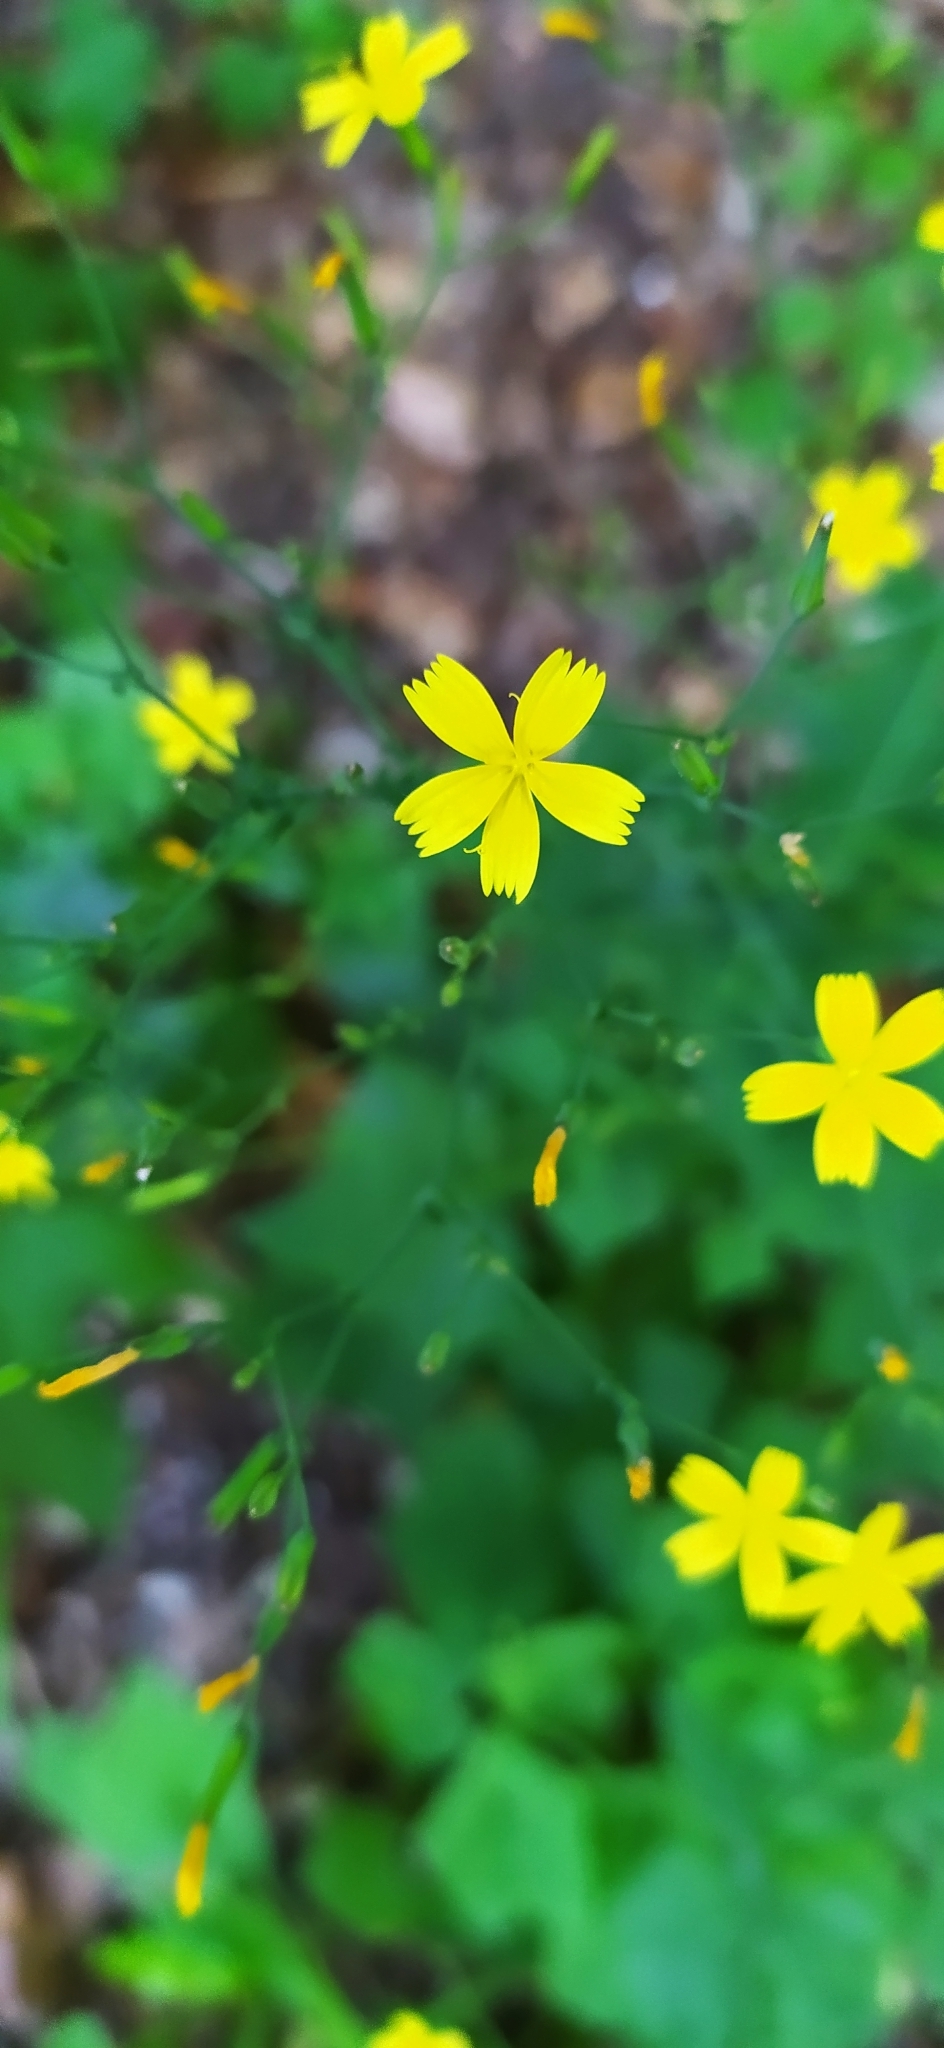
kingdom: Plantae
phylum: Tracheophyta
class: Magnoliopsida
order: Asterales
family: Asteraceae
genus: Mycelis
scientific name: Mycelis muralis
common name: Wall lettuce
